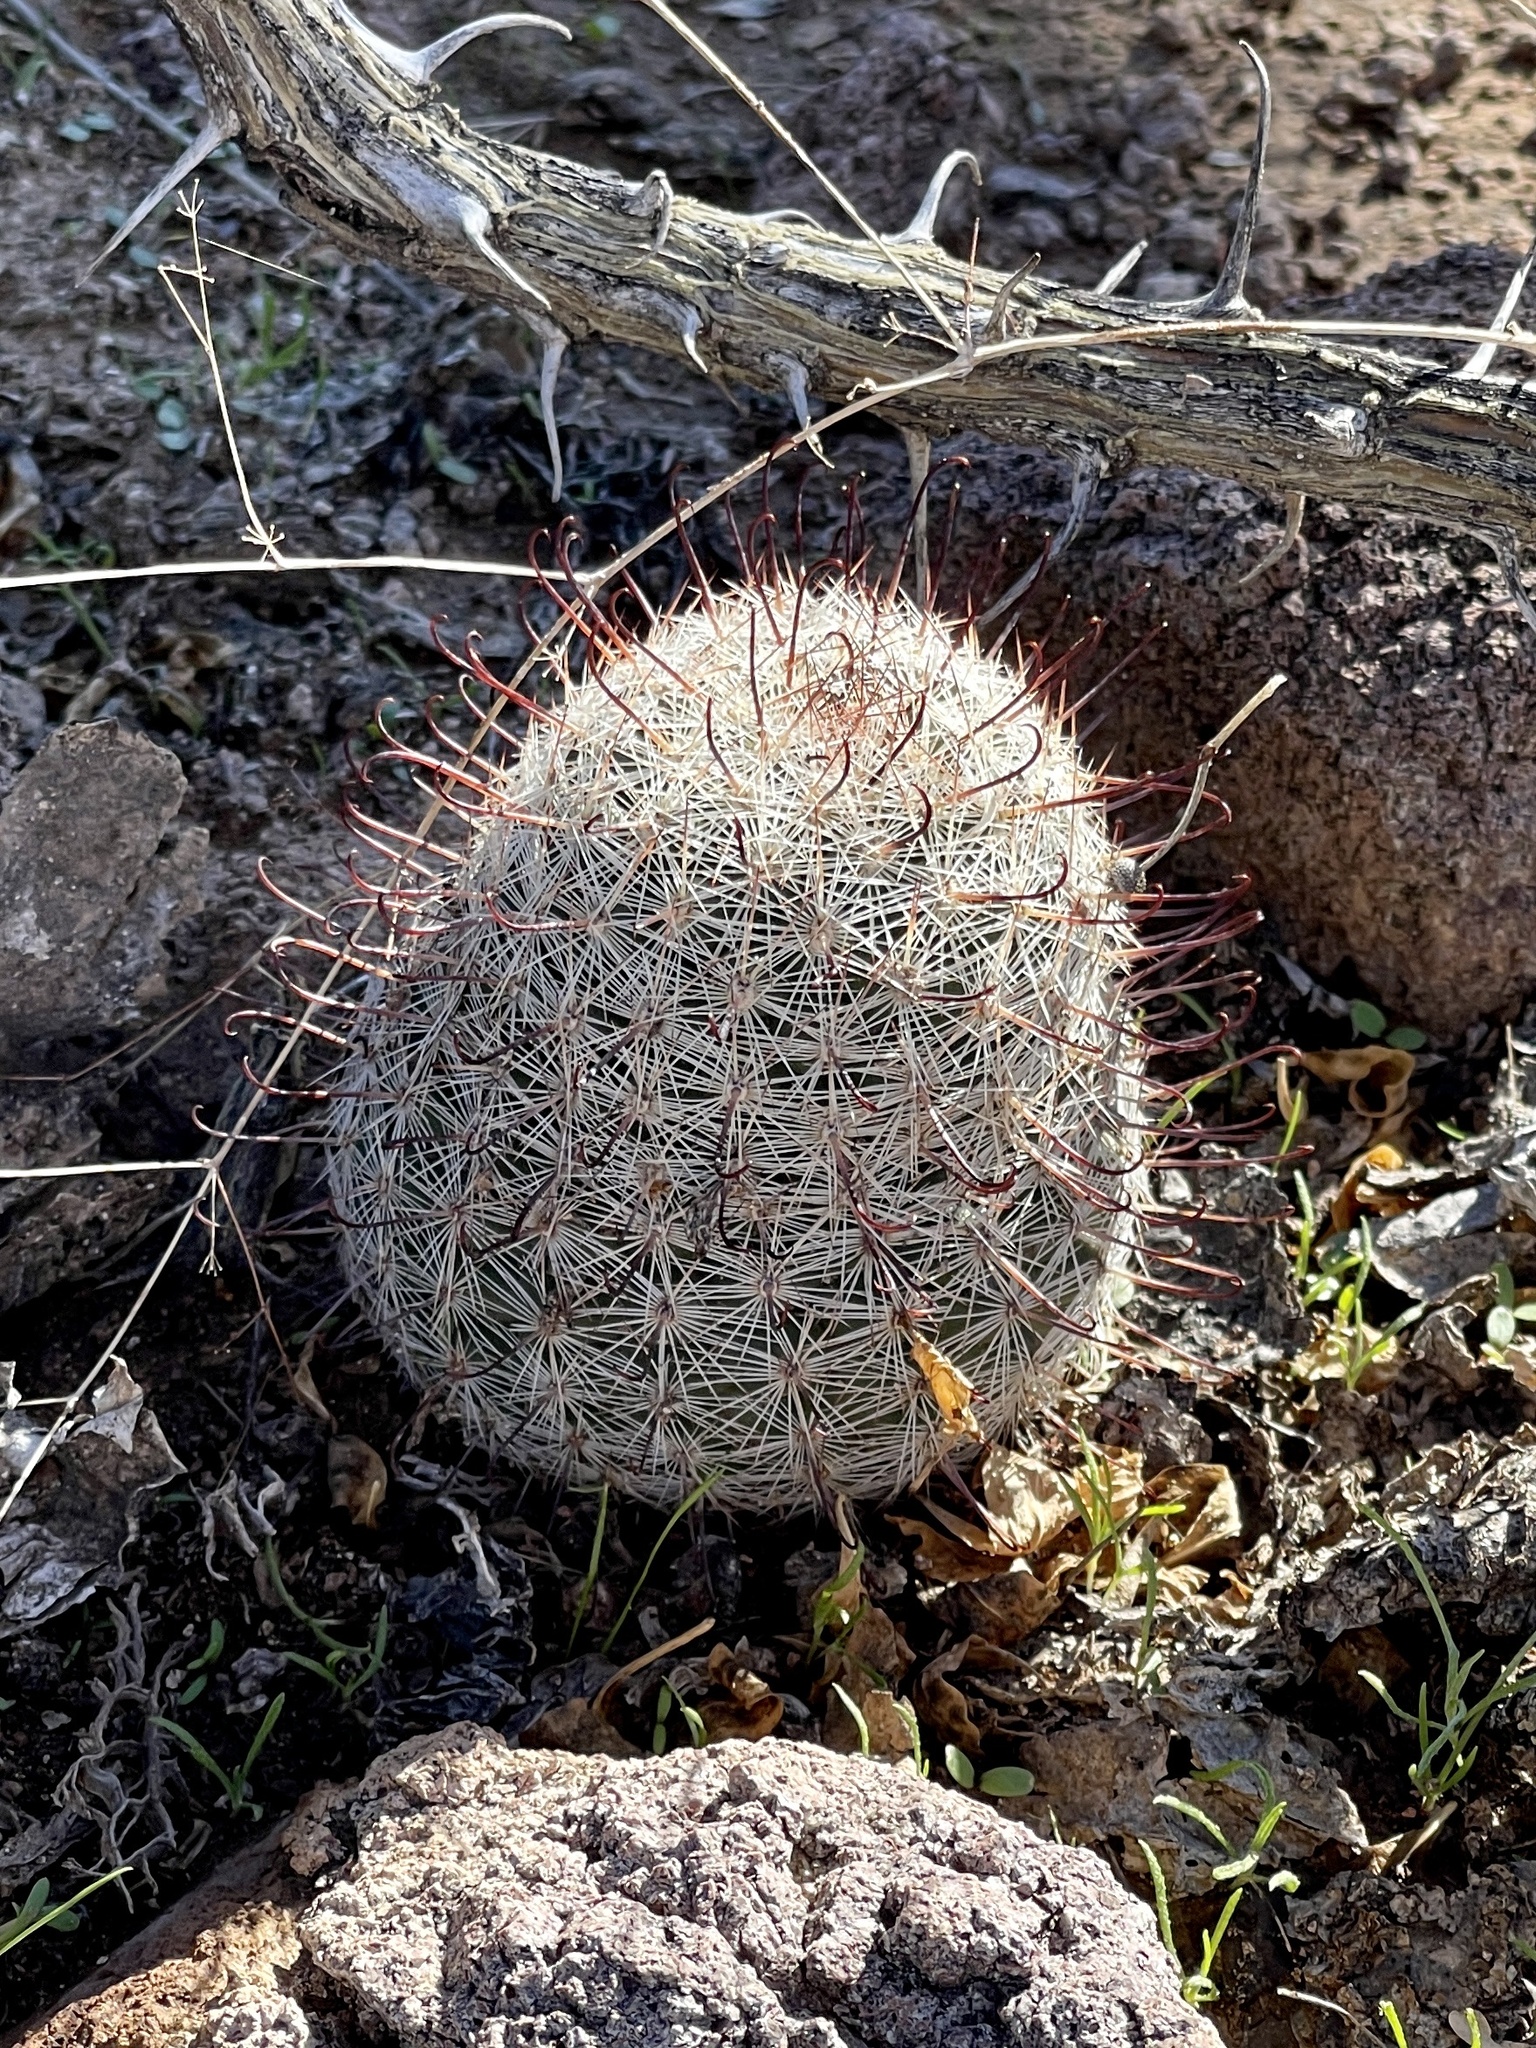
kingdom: Plantae
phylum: Tracheophyta
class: Magnoliopsida
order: Caryophyllales
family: Cactaceae
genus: Cochemiea
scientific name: Cochemiea grahamii
